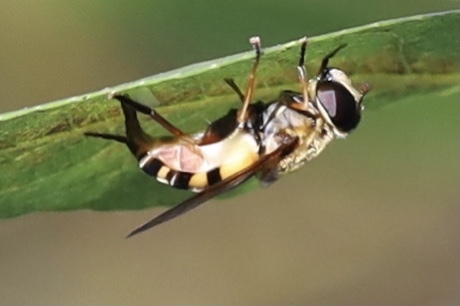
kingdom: Animalia
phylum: Arthropoda
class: Insecta
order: Diptera
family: Syrphidae
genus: Helophilus
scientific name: Helophilus fasciatus
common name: Narrow-headed marsh fly
